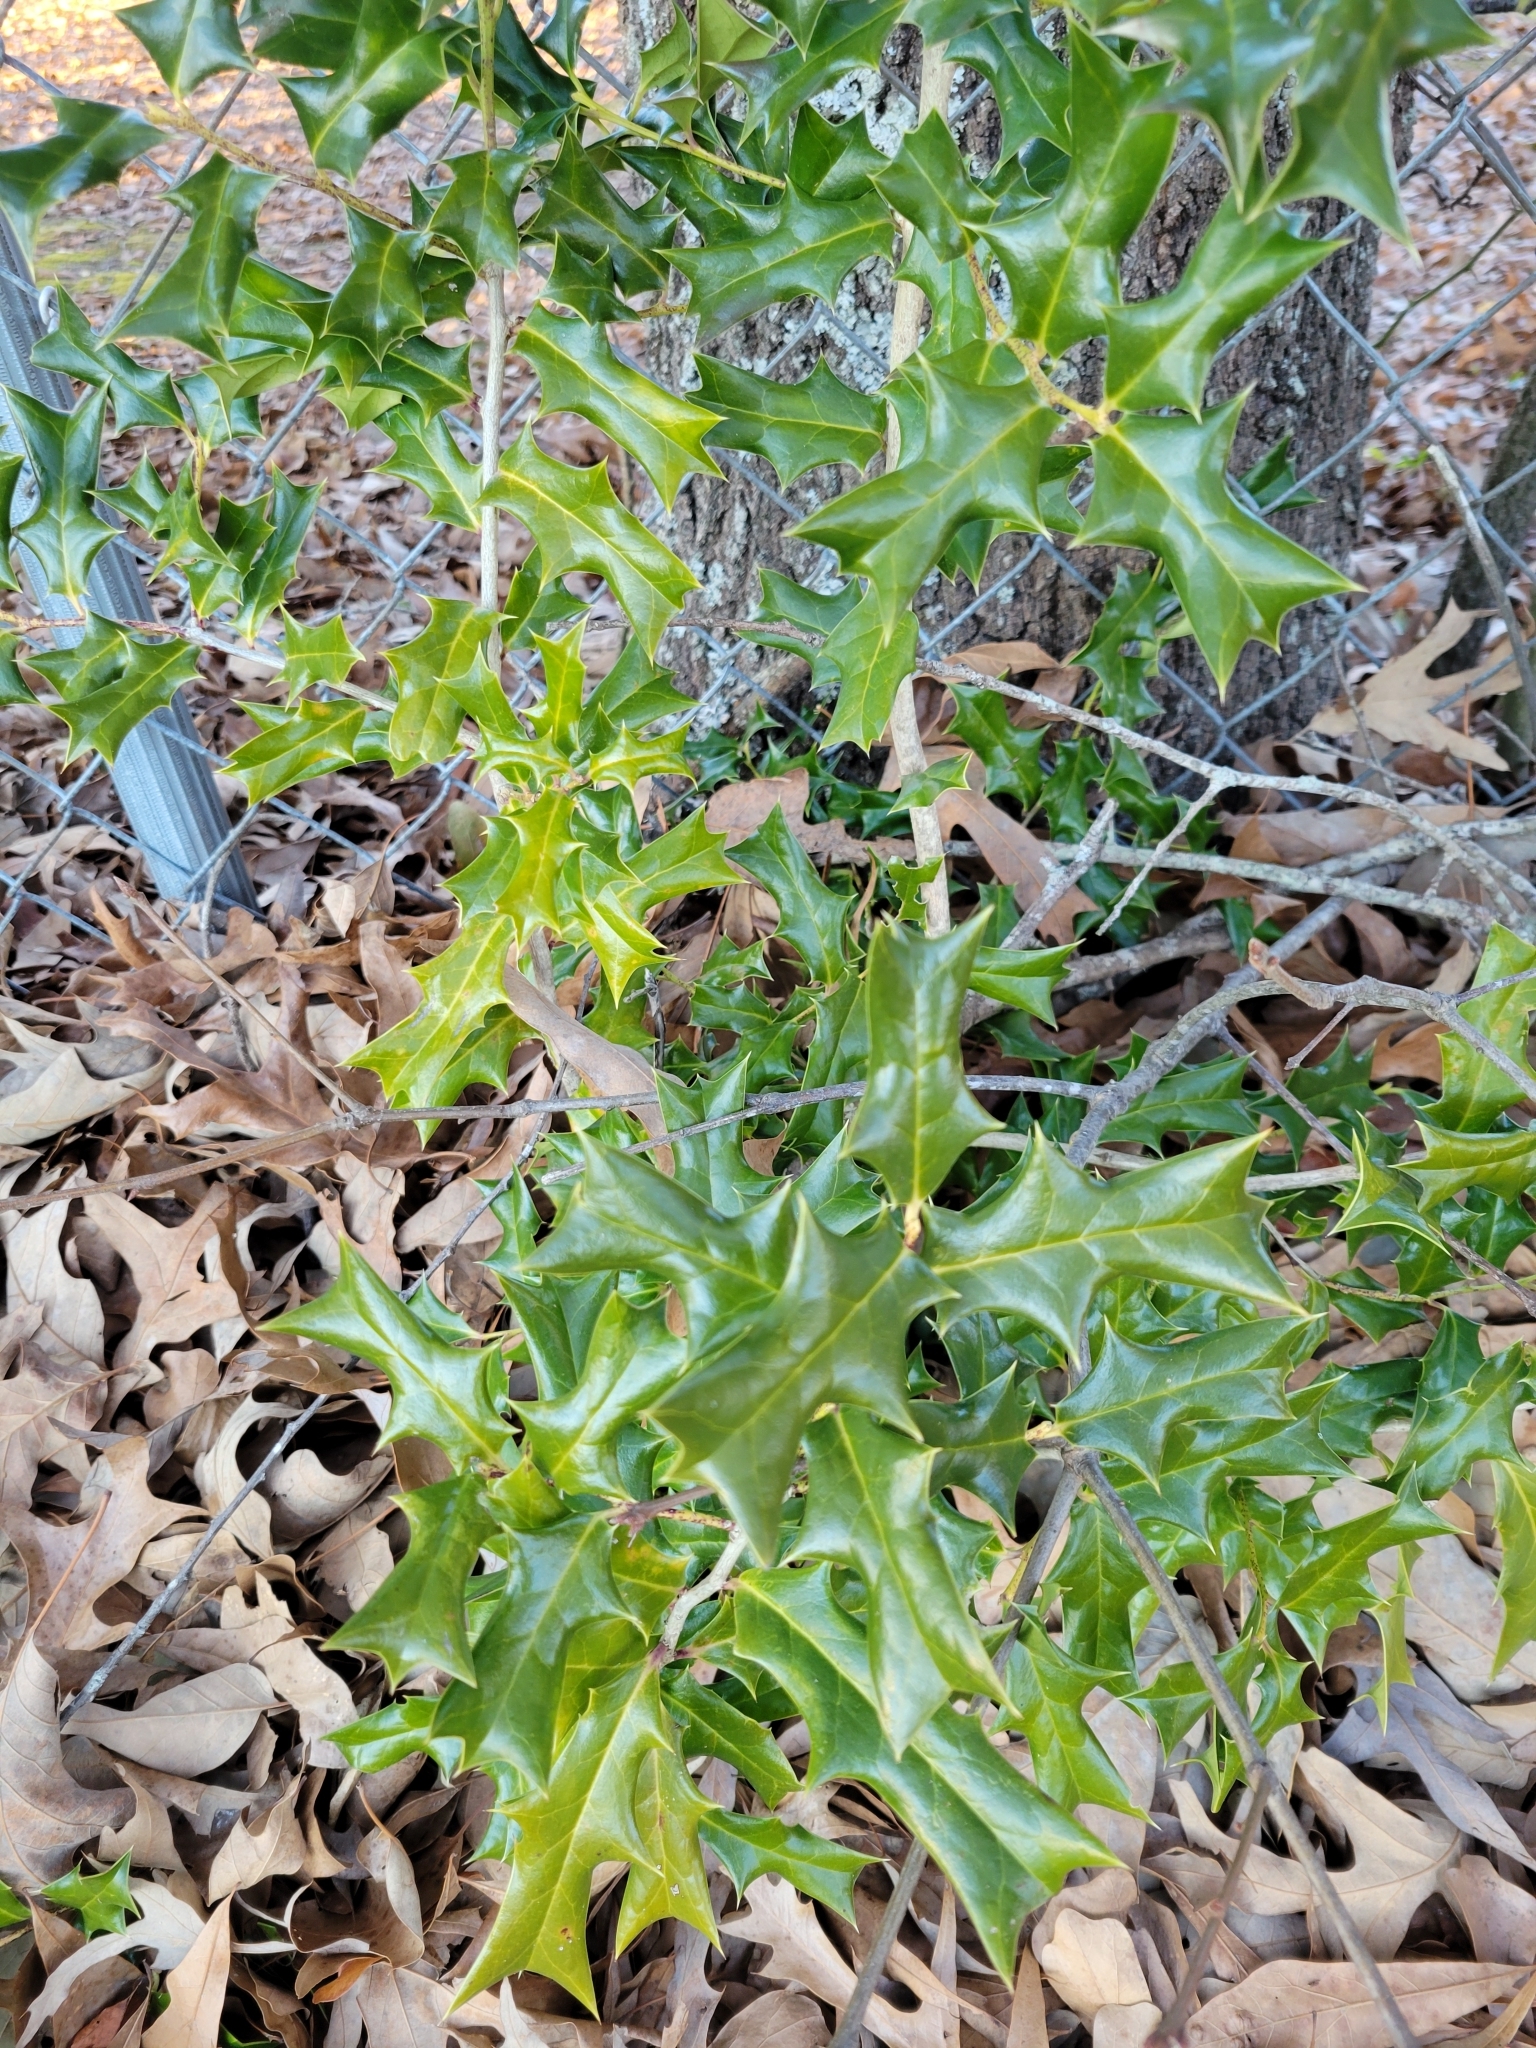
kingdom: Plantae
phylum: Tracheophyta
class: Magnoliopsida
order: Aquifoliales
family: Aquifoliaceae
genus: Ilex
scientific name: Ilex cornuta
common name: Chinese holly
